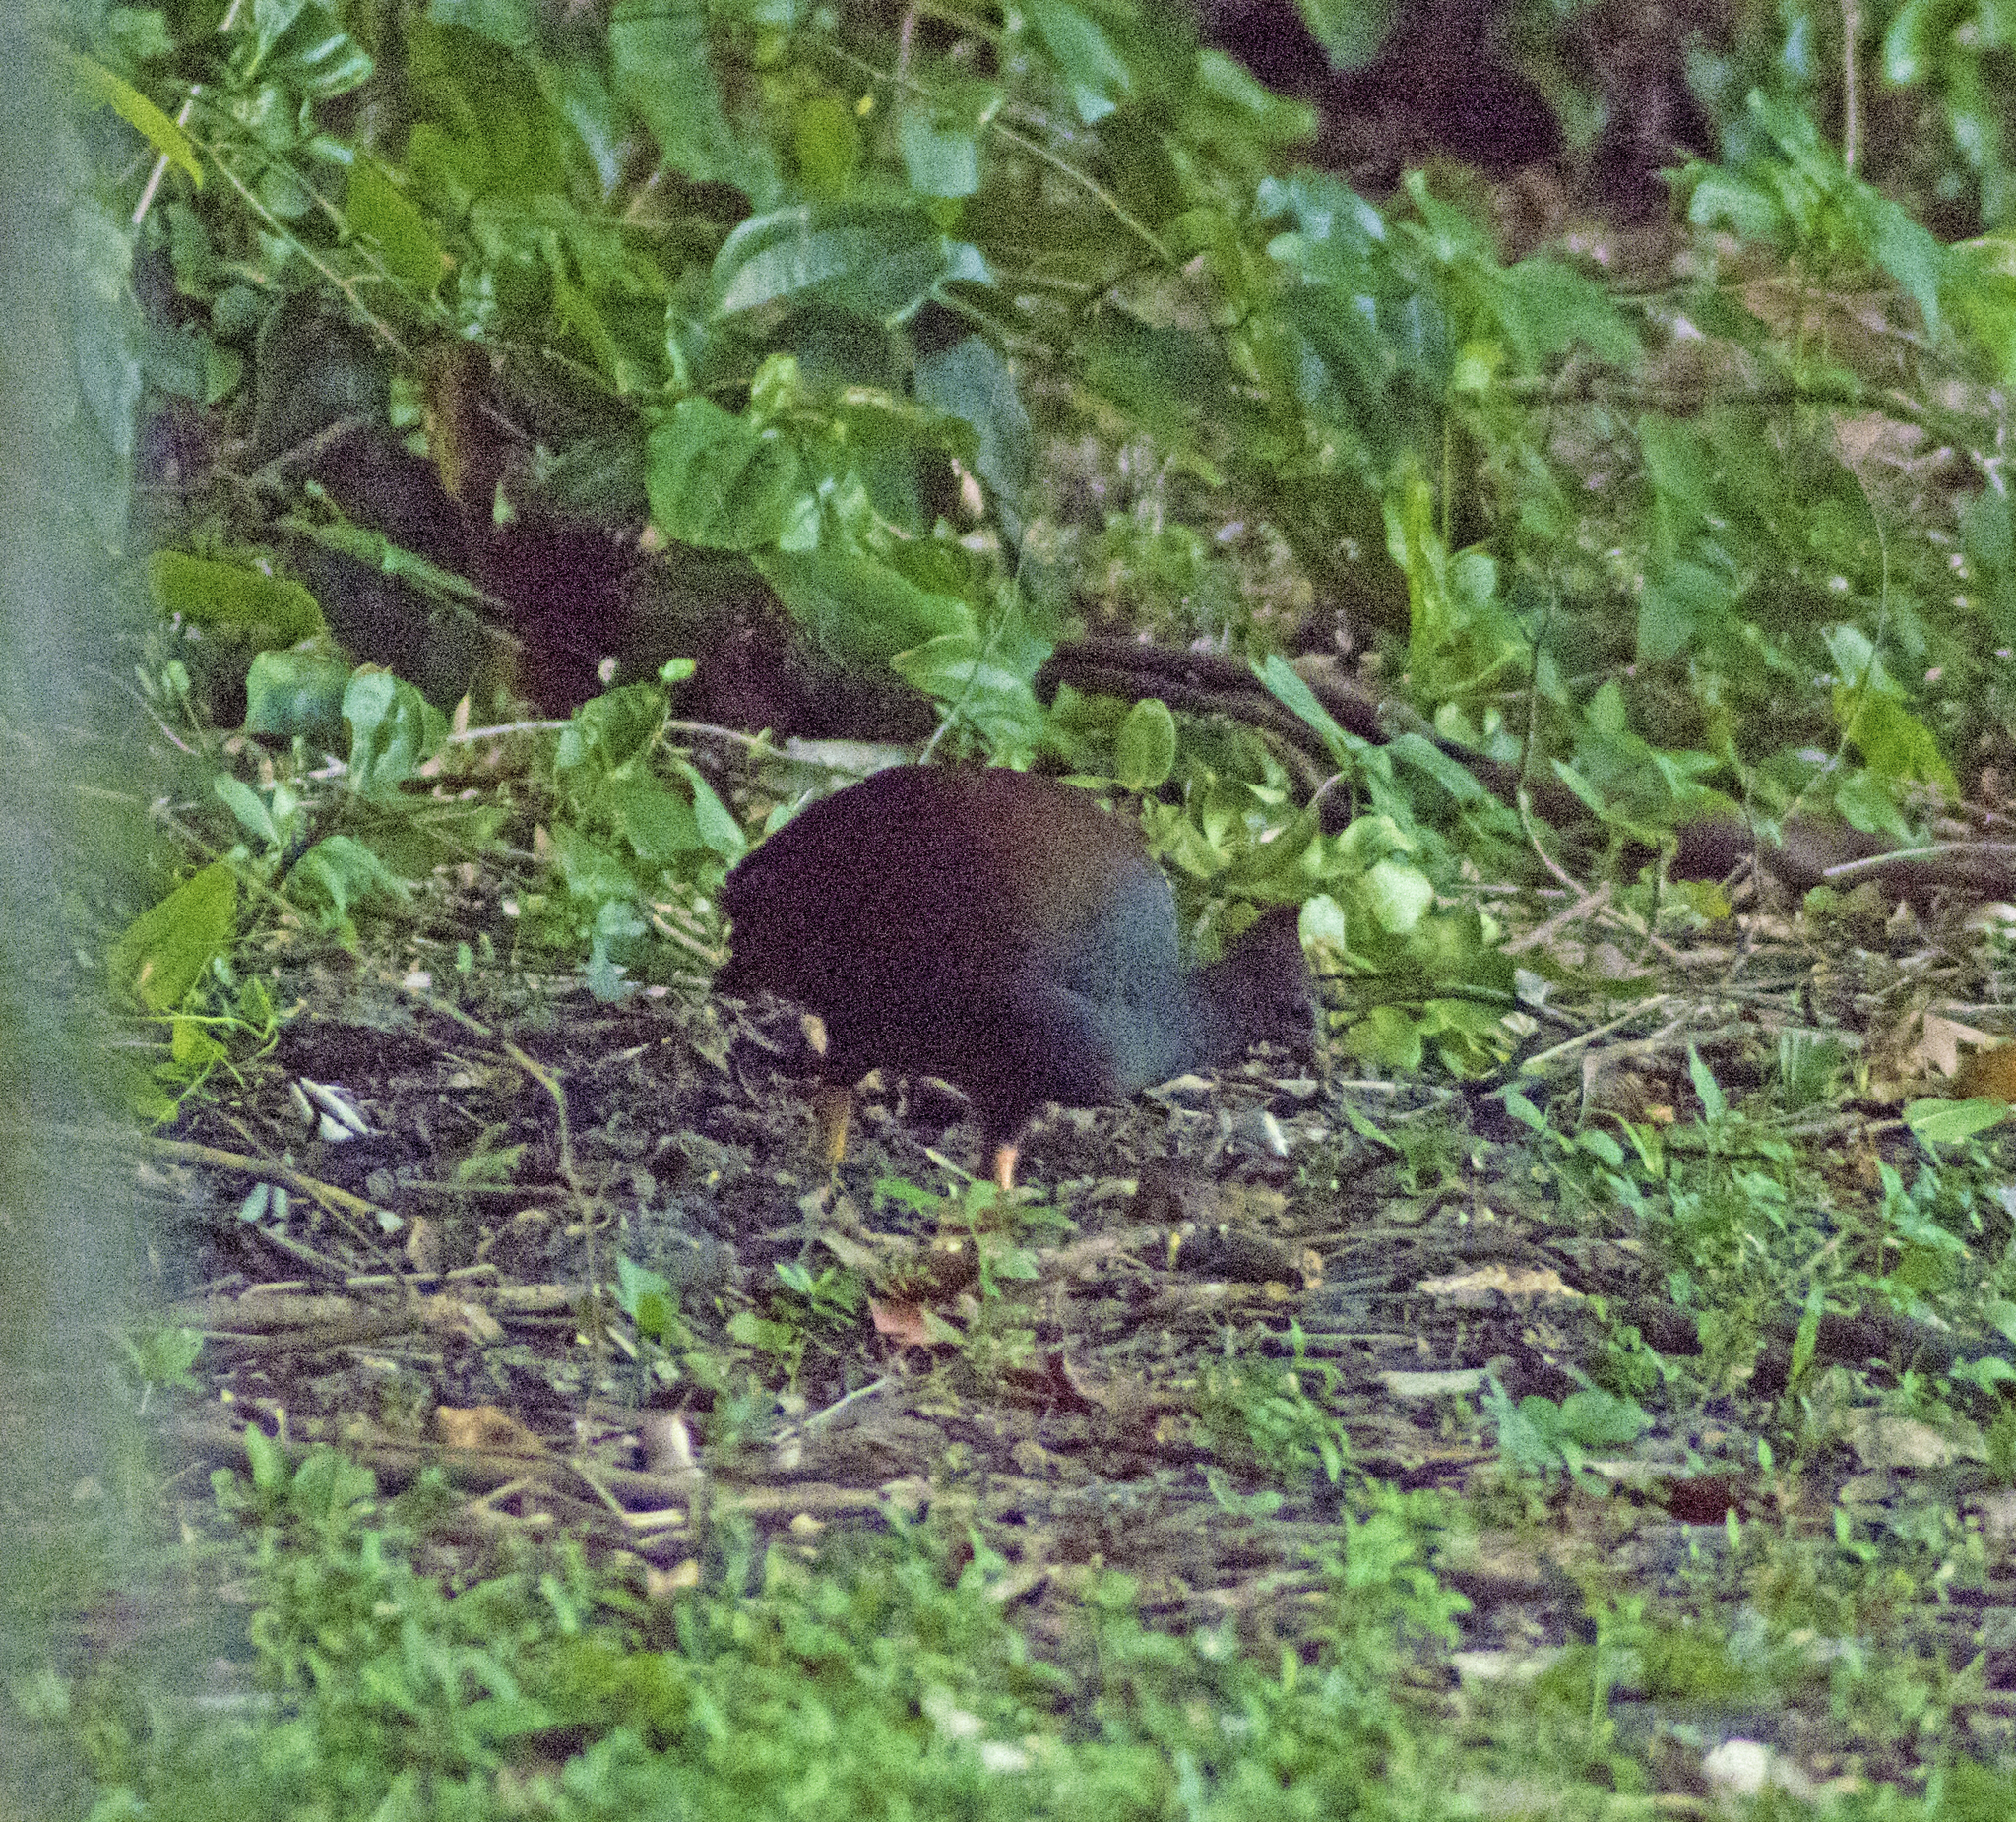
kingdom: Animalia
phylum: Chordata
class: Aves
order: Galliformes
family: Megapodiidae
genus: Megapodius
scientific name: Megapodius reinwardt
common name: Orange-footed scrubfowl
